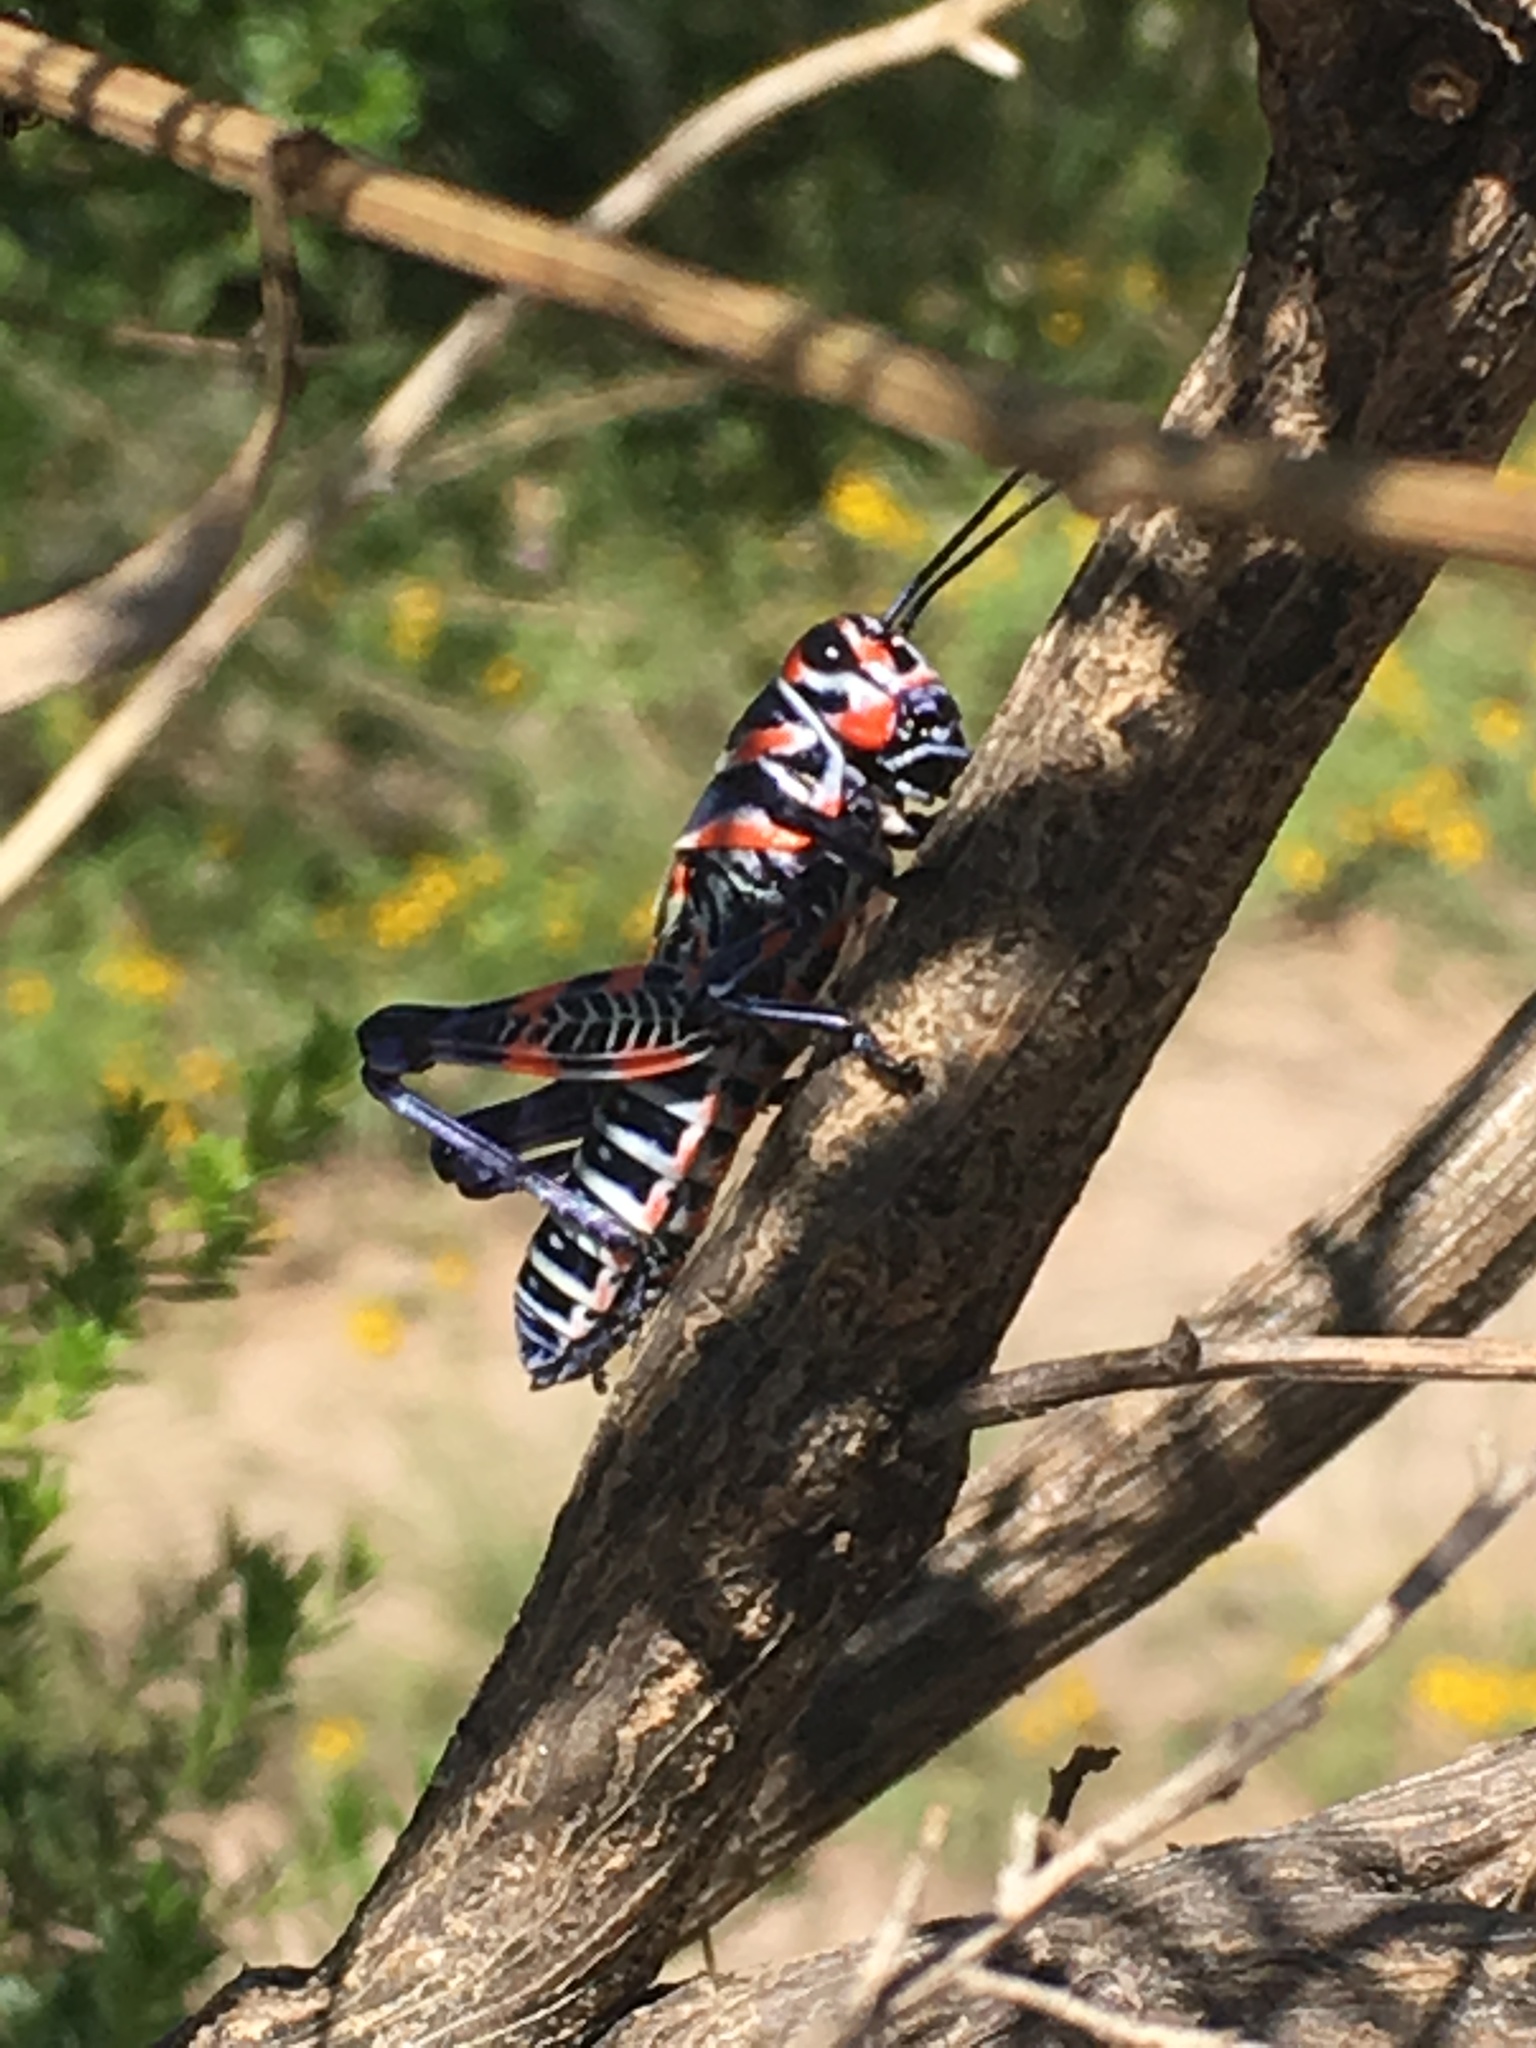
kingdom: Animalia
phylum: Arthropoda
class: Insecta
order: Orthoptera
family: Acrididae
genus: Dactylotum
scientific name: Dactylotum bicolor
